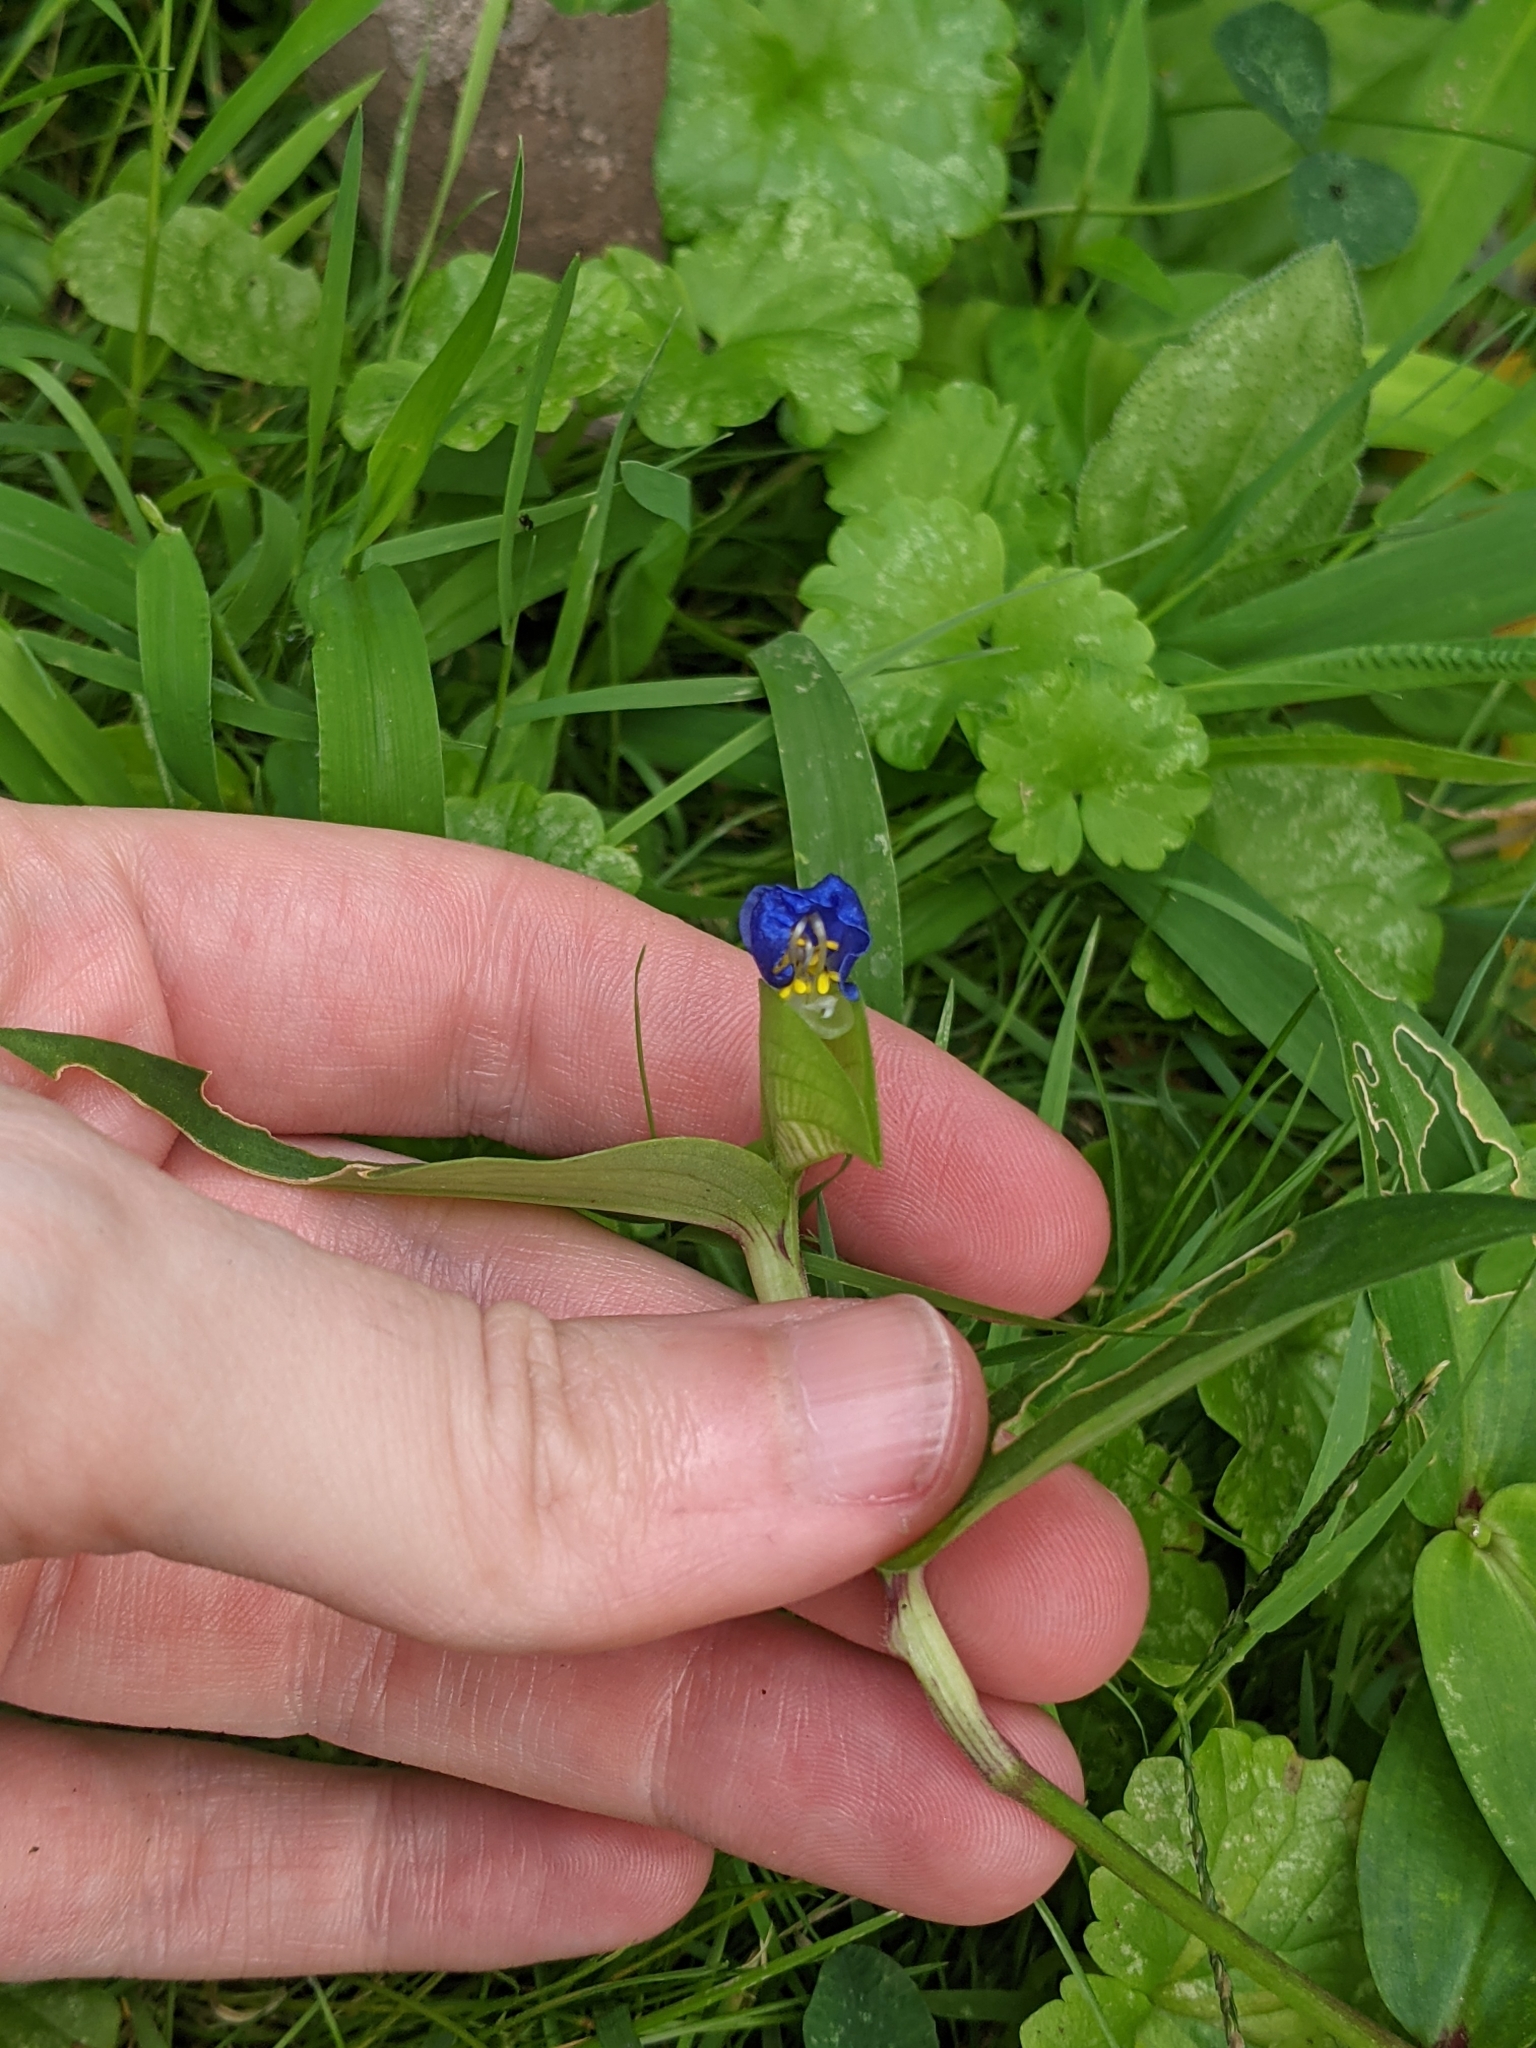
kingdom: Plantae
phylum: Tracheophyta
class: Liliopsida
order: Commelinales
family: Commelinaceae
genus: Commelina
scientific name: Commelina communis
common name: Asiatic dayflower
